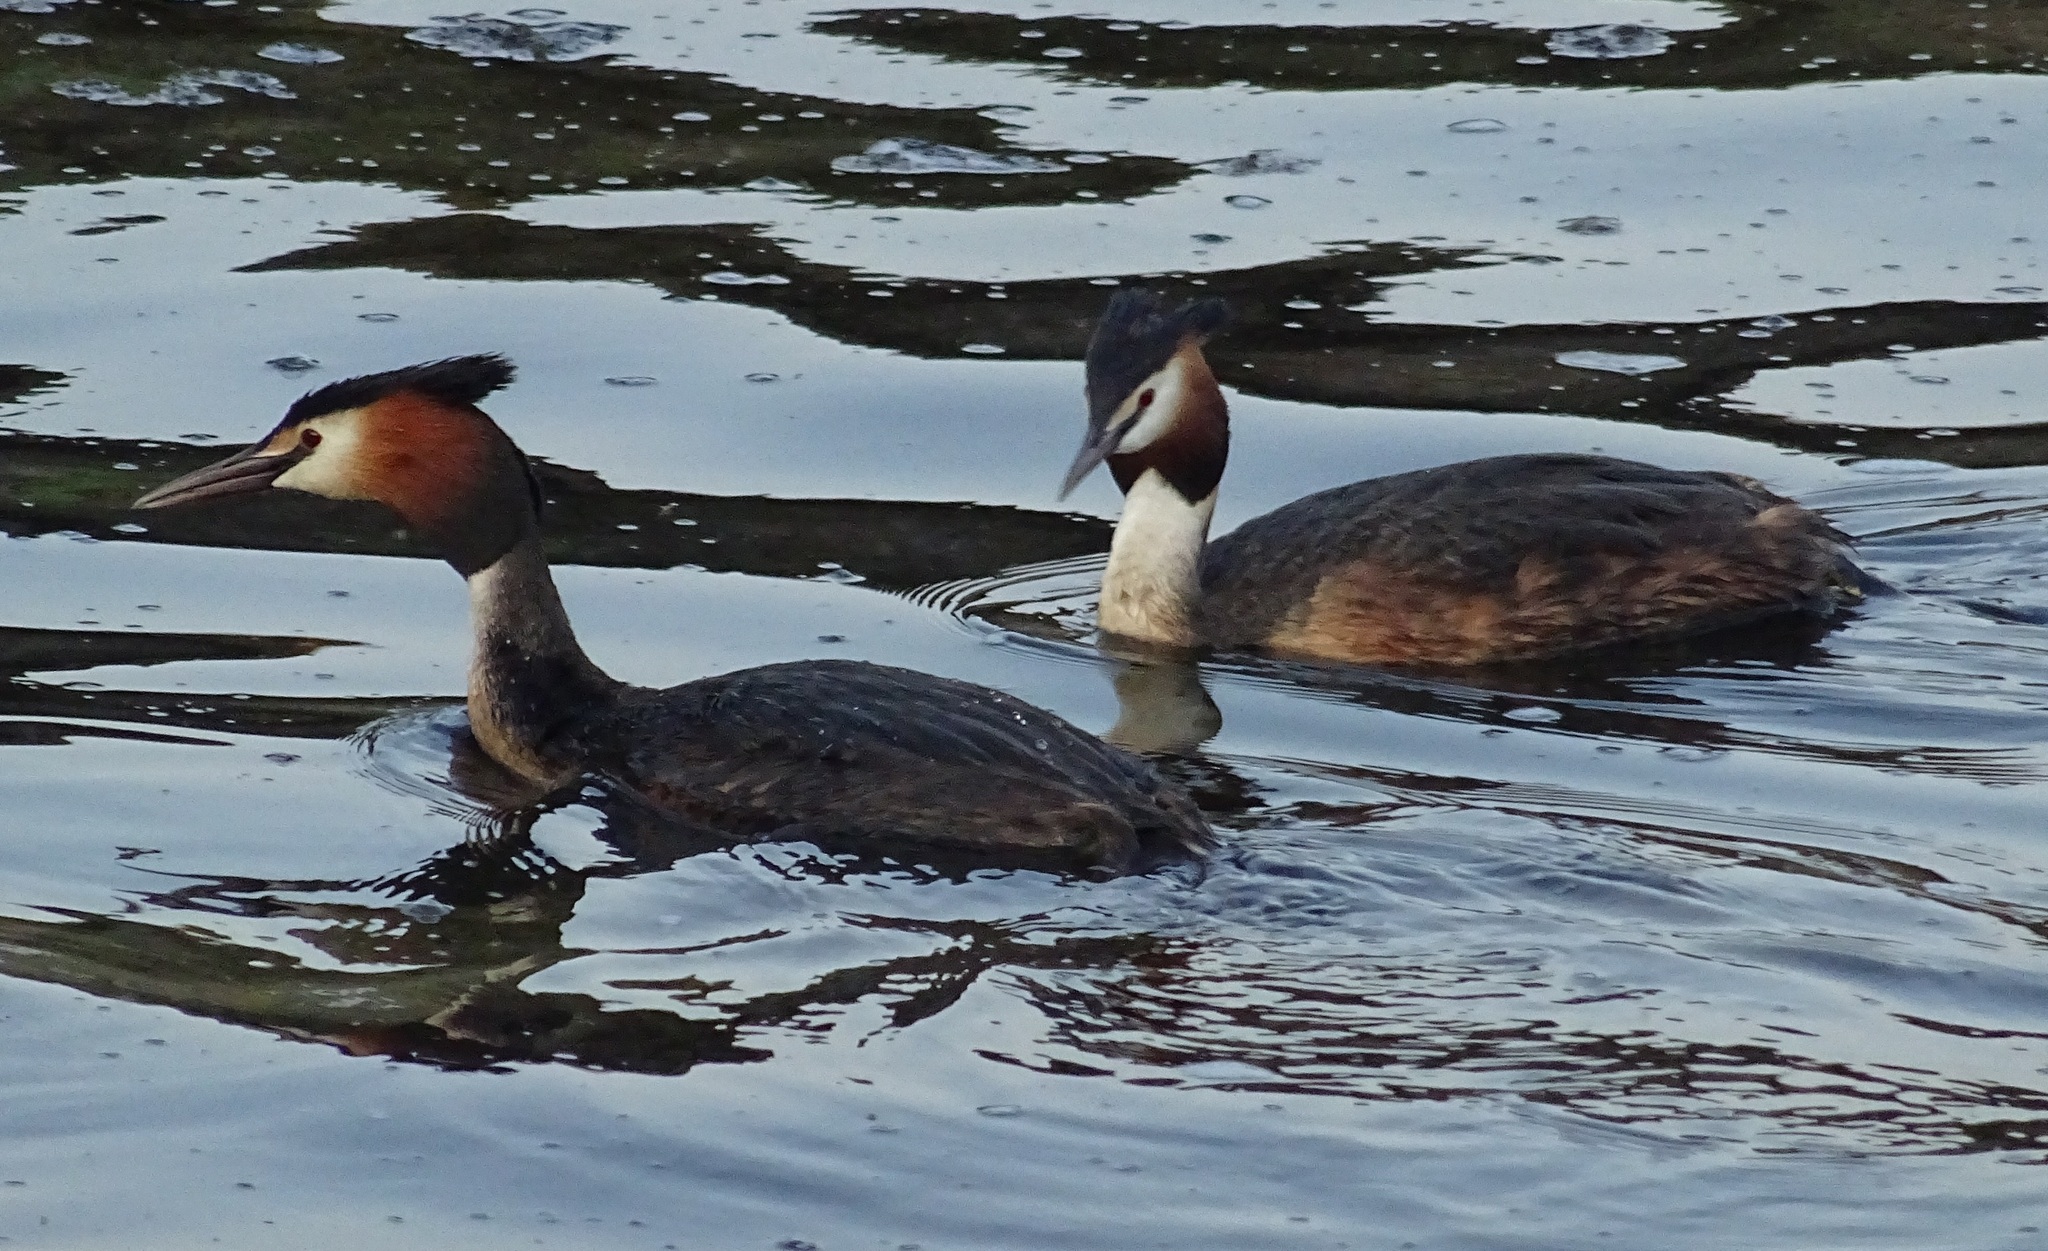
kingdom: Animalia
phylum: Chordata
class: Aves
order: Podicipediformes
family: Podicipedidae
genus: Podiceps
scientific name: Podiceps cristatus
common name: Great crested grebe
